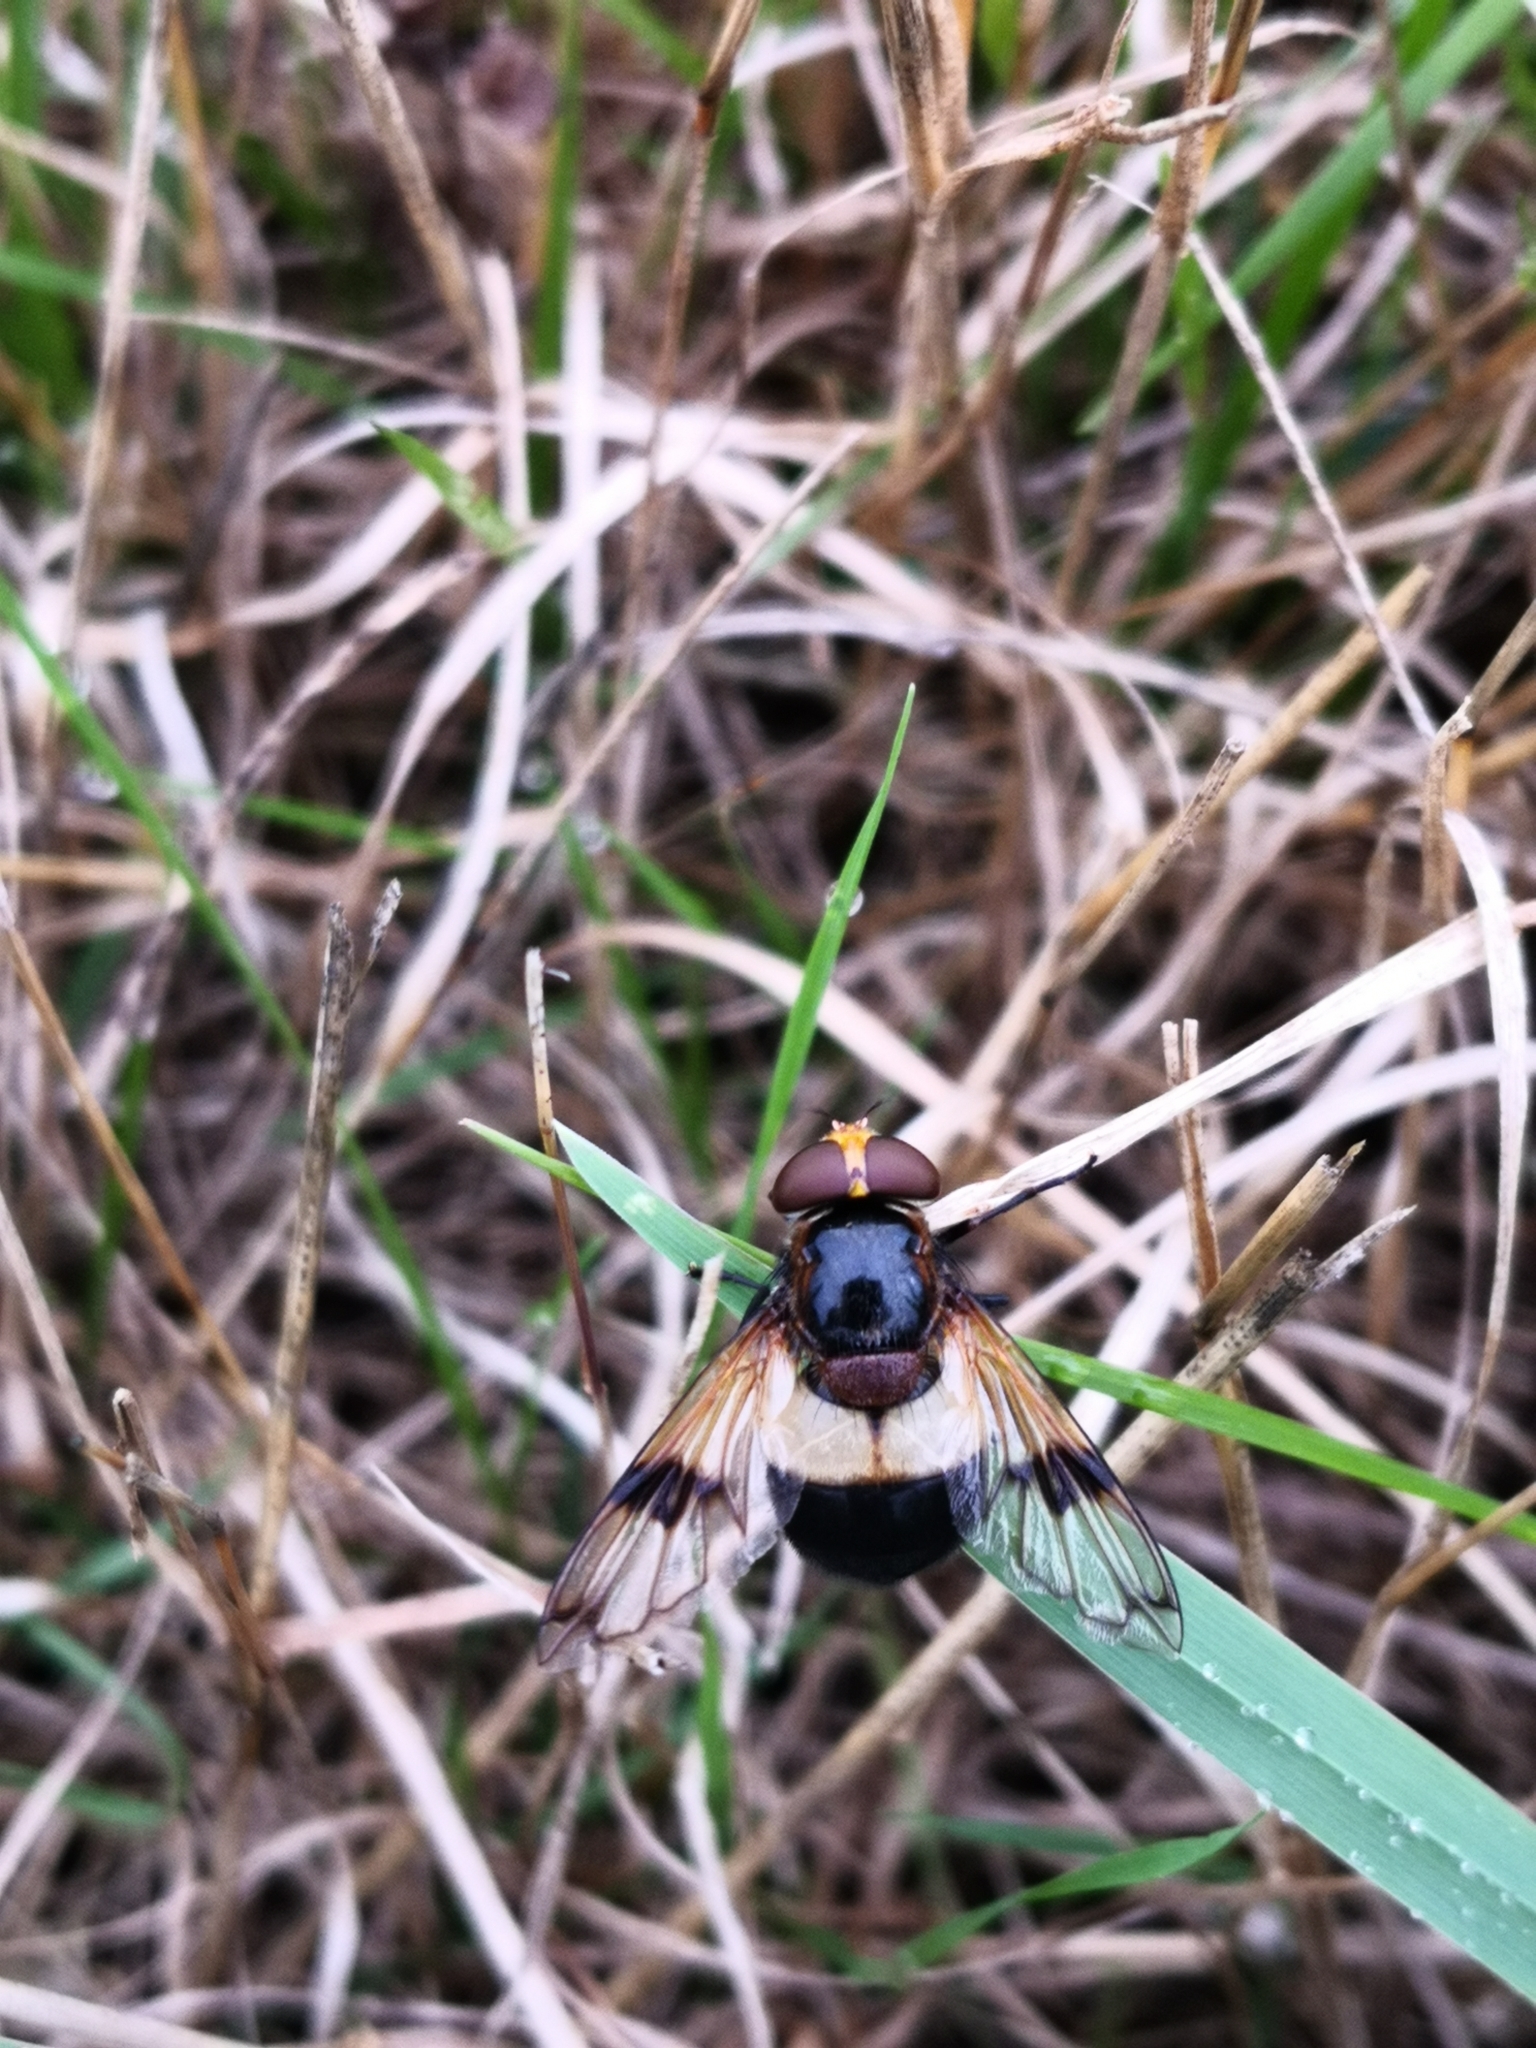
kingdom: Animalia
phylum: Arthropoda
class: Insecta
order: Diptera
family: Syrphidae
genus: Volucella
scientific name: Volucella pellucens
